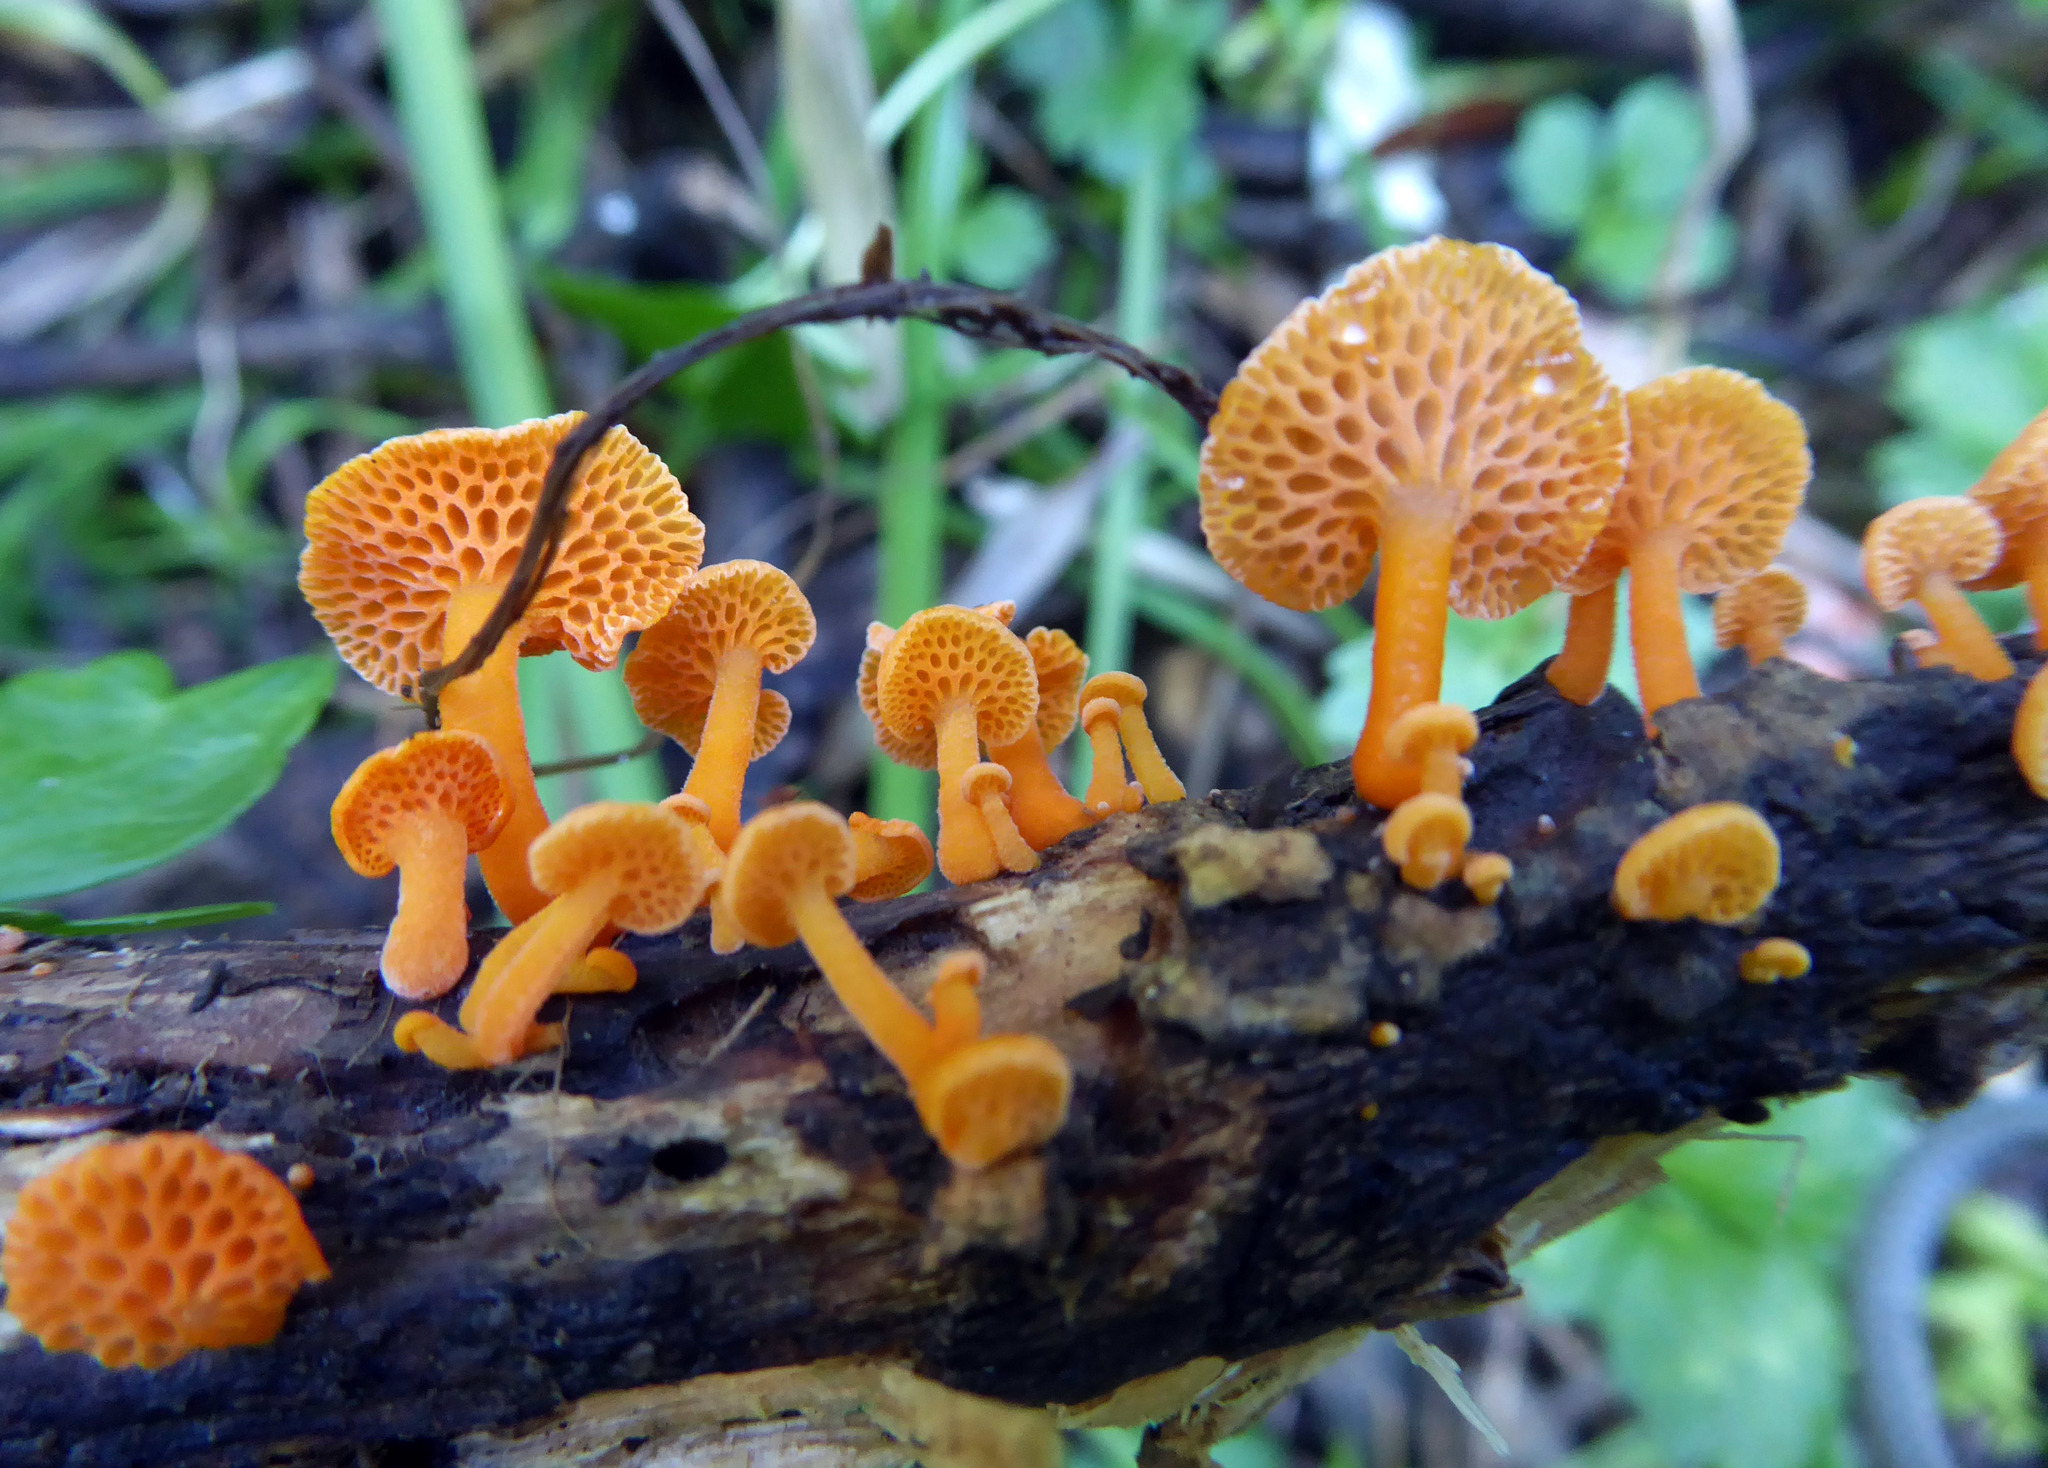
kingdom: Fungi
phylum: Basidiomycota
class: Agaricomycetes
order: Agaricales
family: Mycenaceae
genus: Favolaschia
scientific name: Favolaschia claudopus
